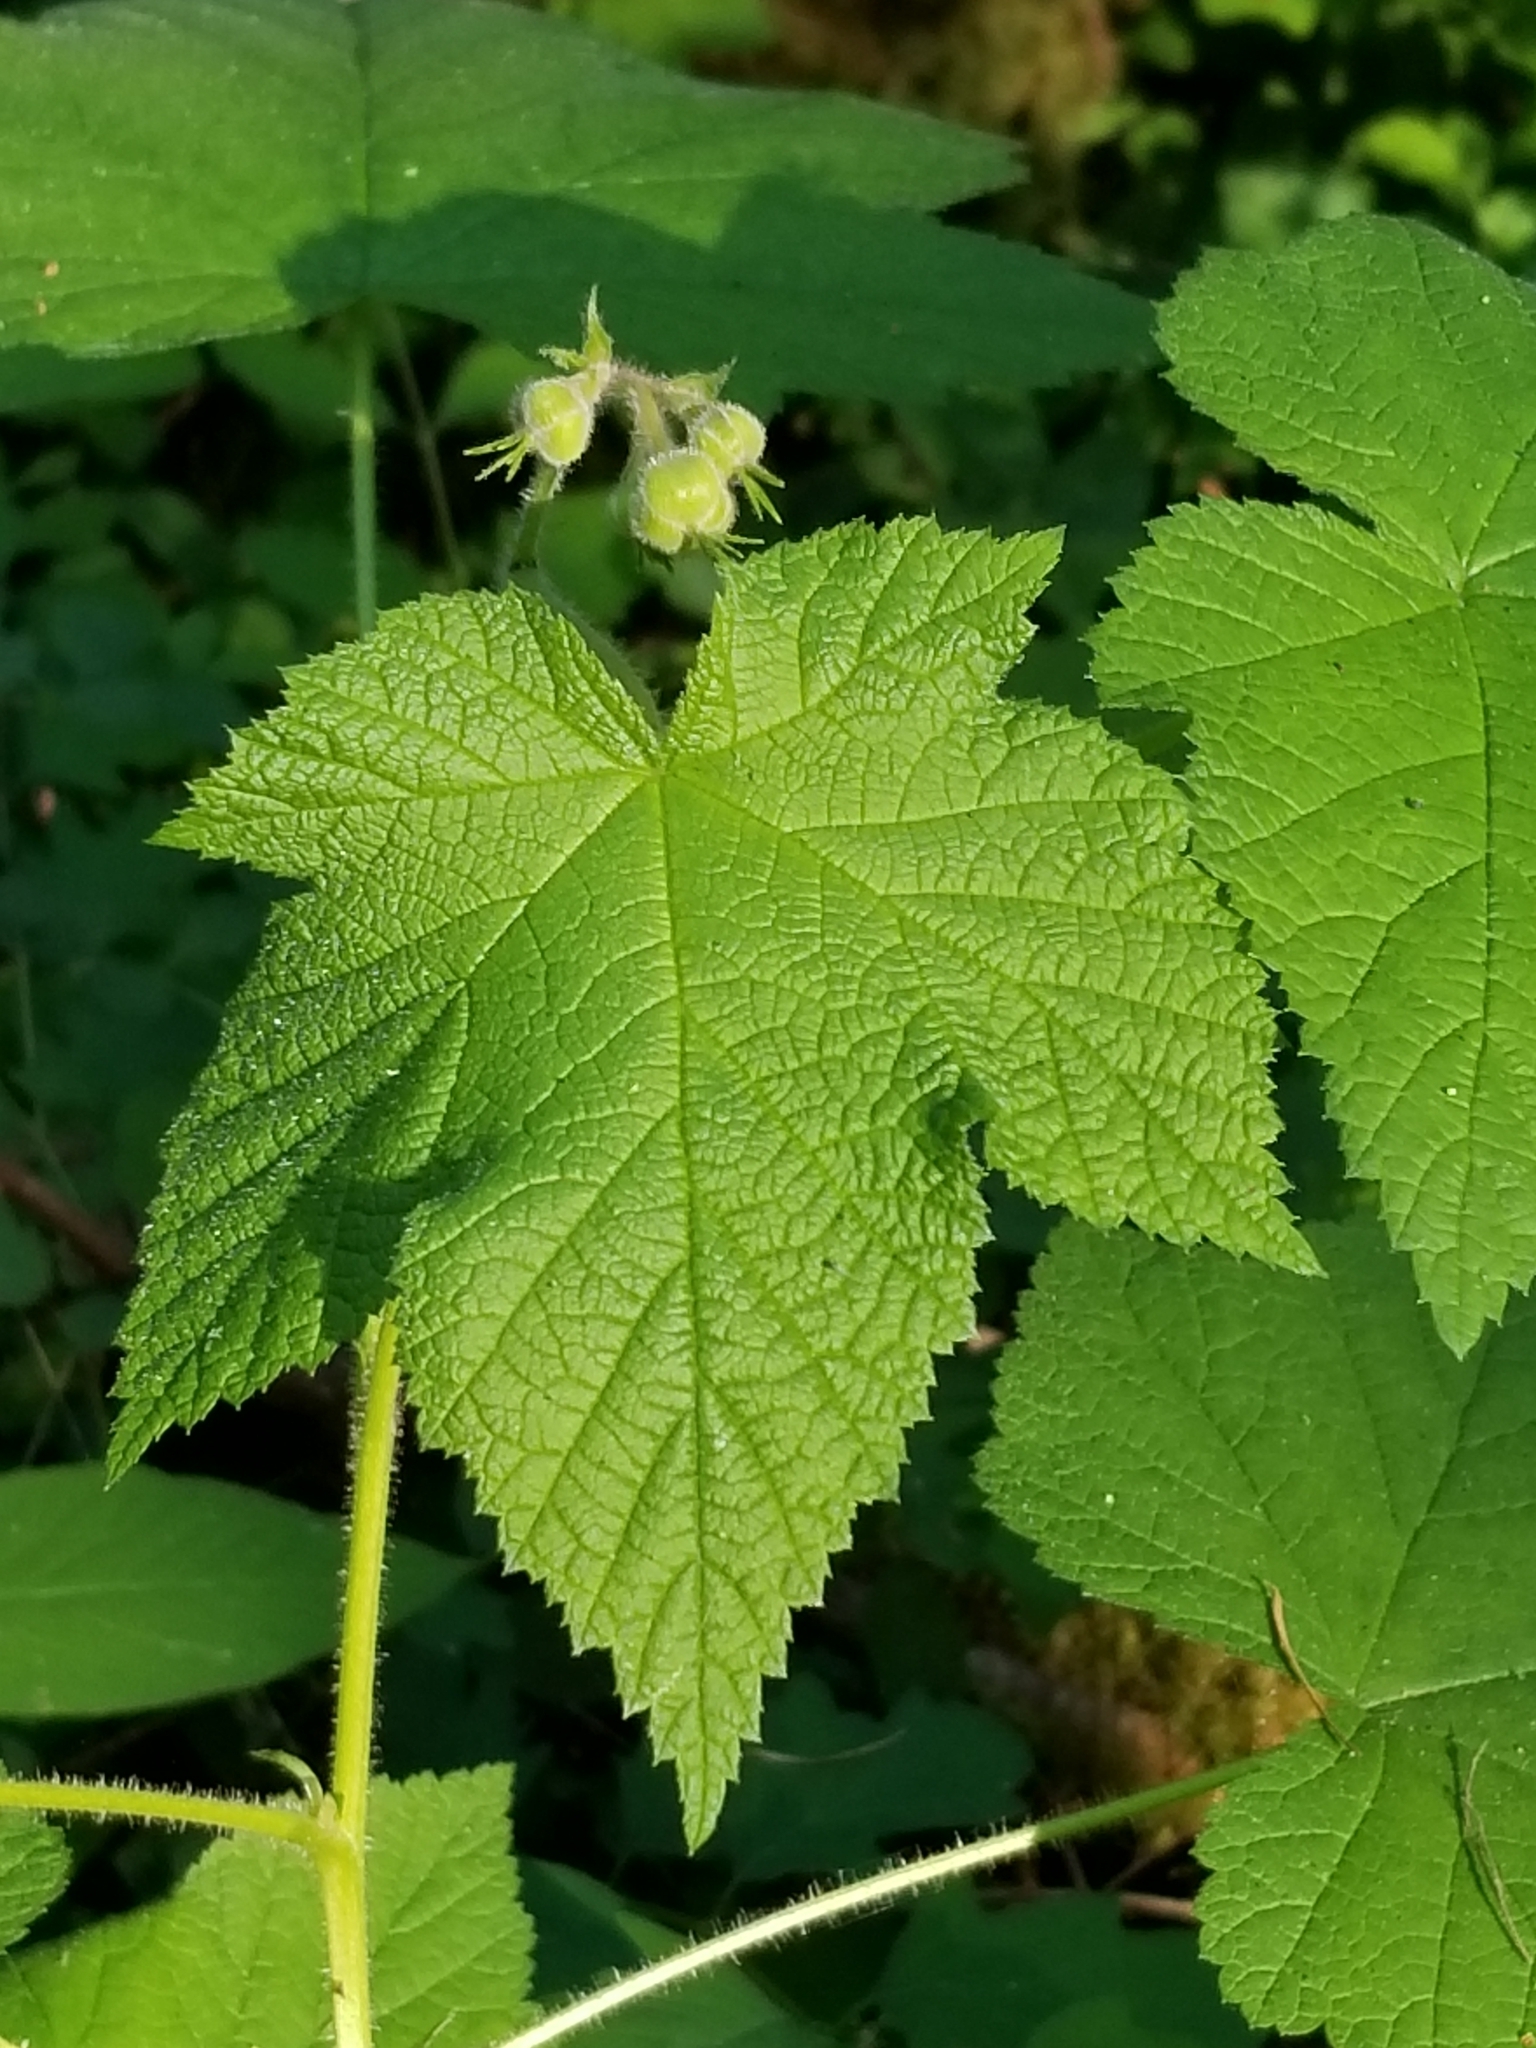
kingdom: Plantae
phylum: Tracheophyta
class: Magnoliopsida
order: Rosales
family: Rosaceae
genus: Rubus
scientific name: Rubus parviflorus
